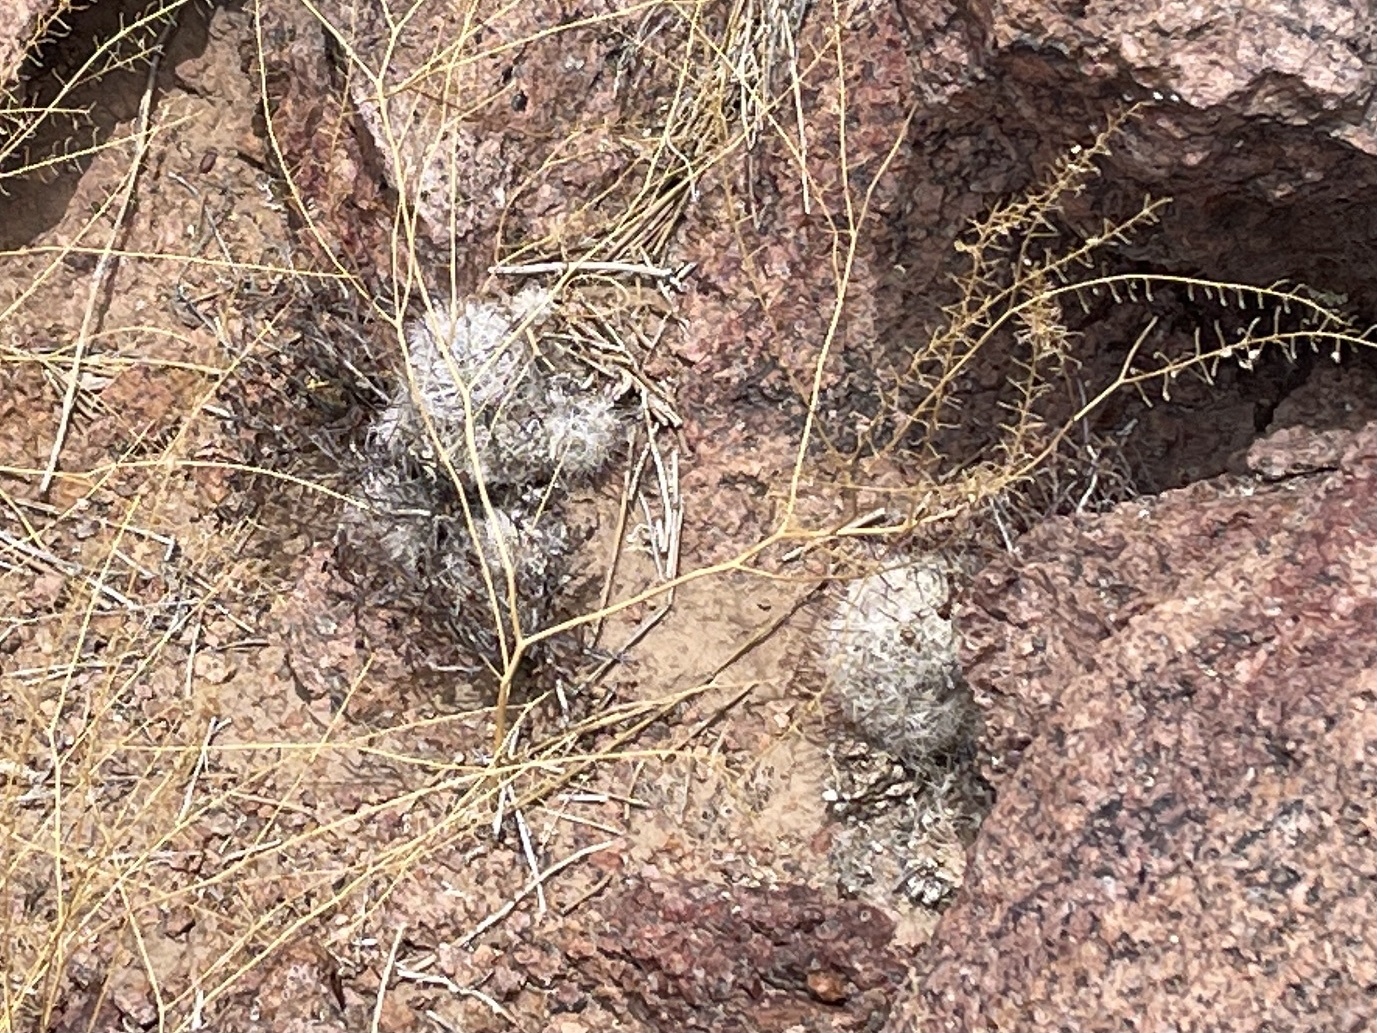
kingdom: Plantae
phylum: Tracheophyta
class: Magnoliopsida
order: Caryophyllales
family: Cactaceae
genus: Cochemiea
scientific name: Cochemiea grahamii
